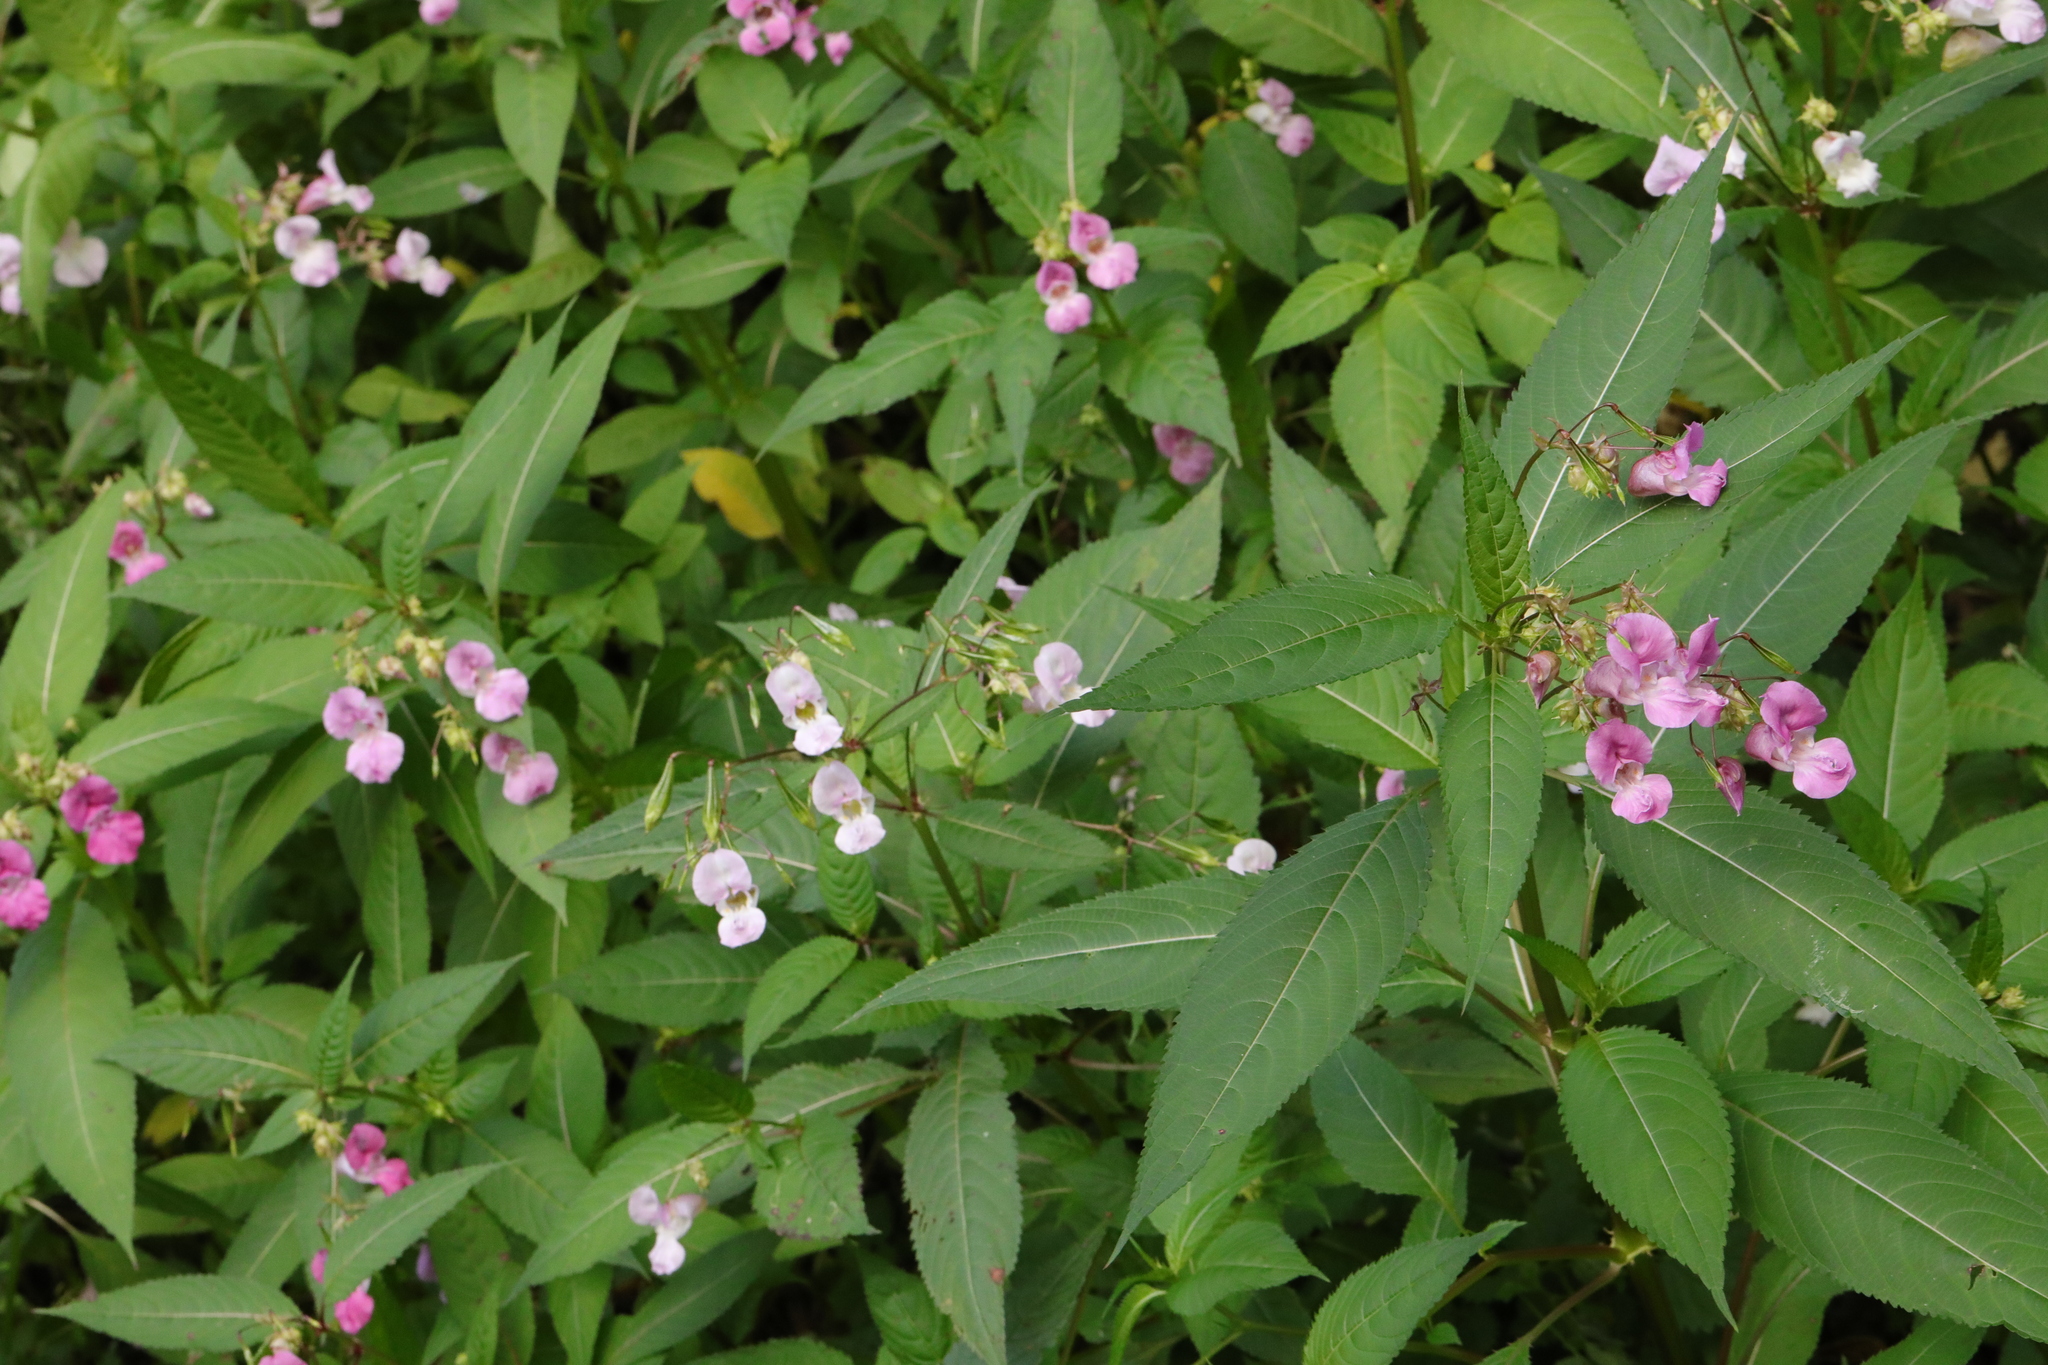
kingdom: Plantae
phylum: Tracheophyta
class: Magnoliopsida
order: Ericales
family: Balsaminaceae
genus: Impatiens
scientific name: Impatiens glandulifera
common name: Himalayan balsam
